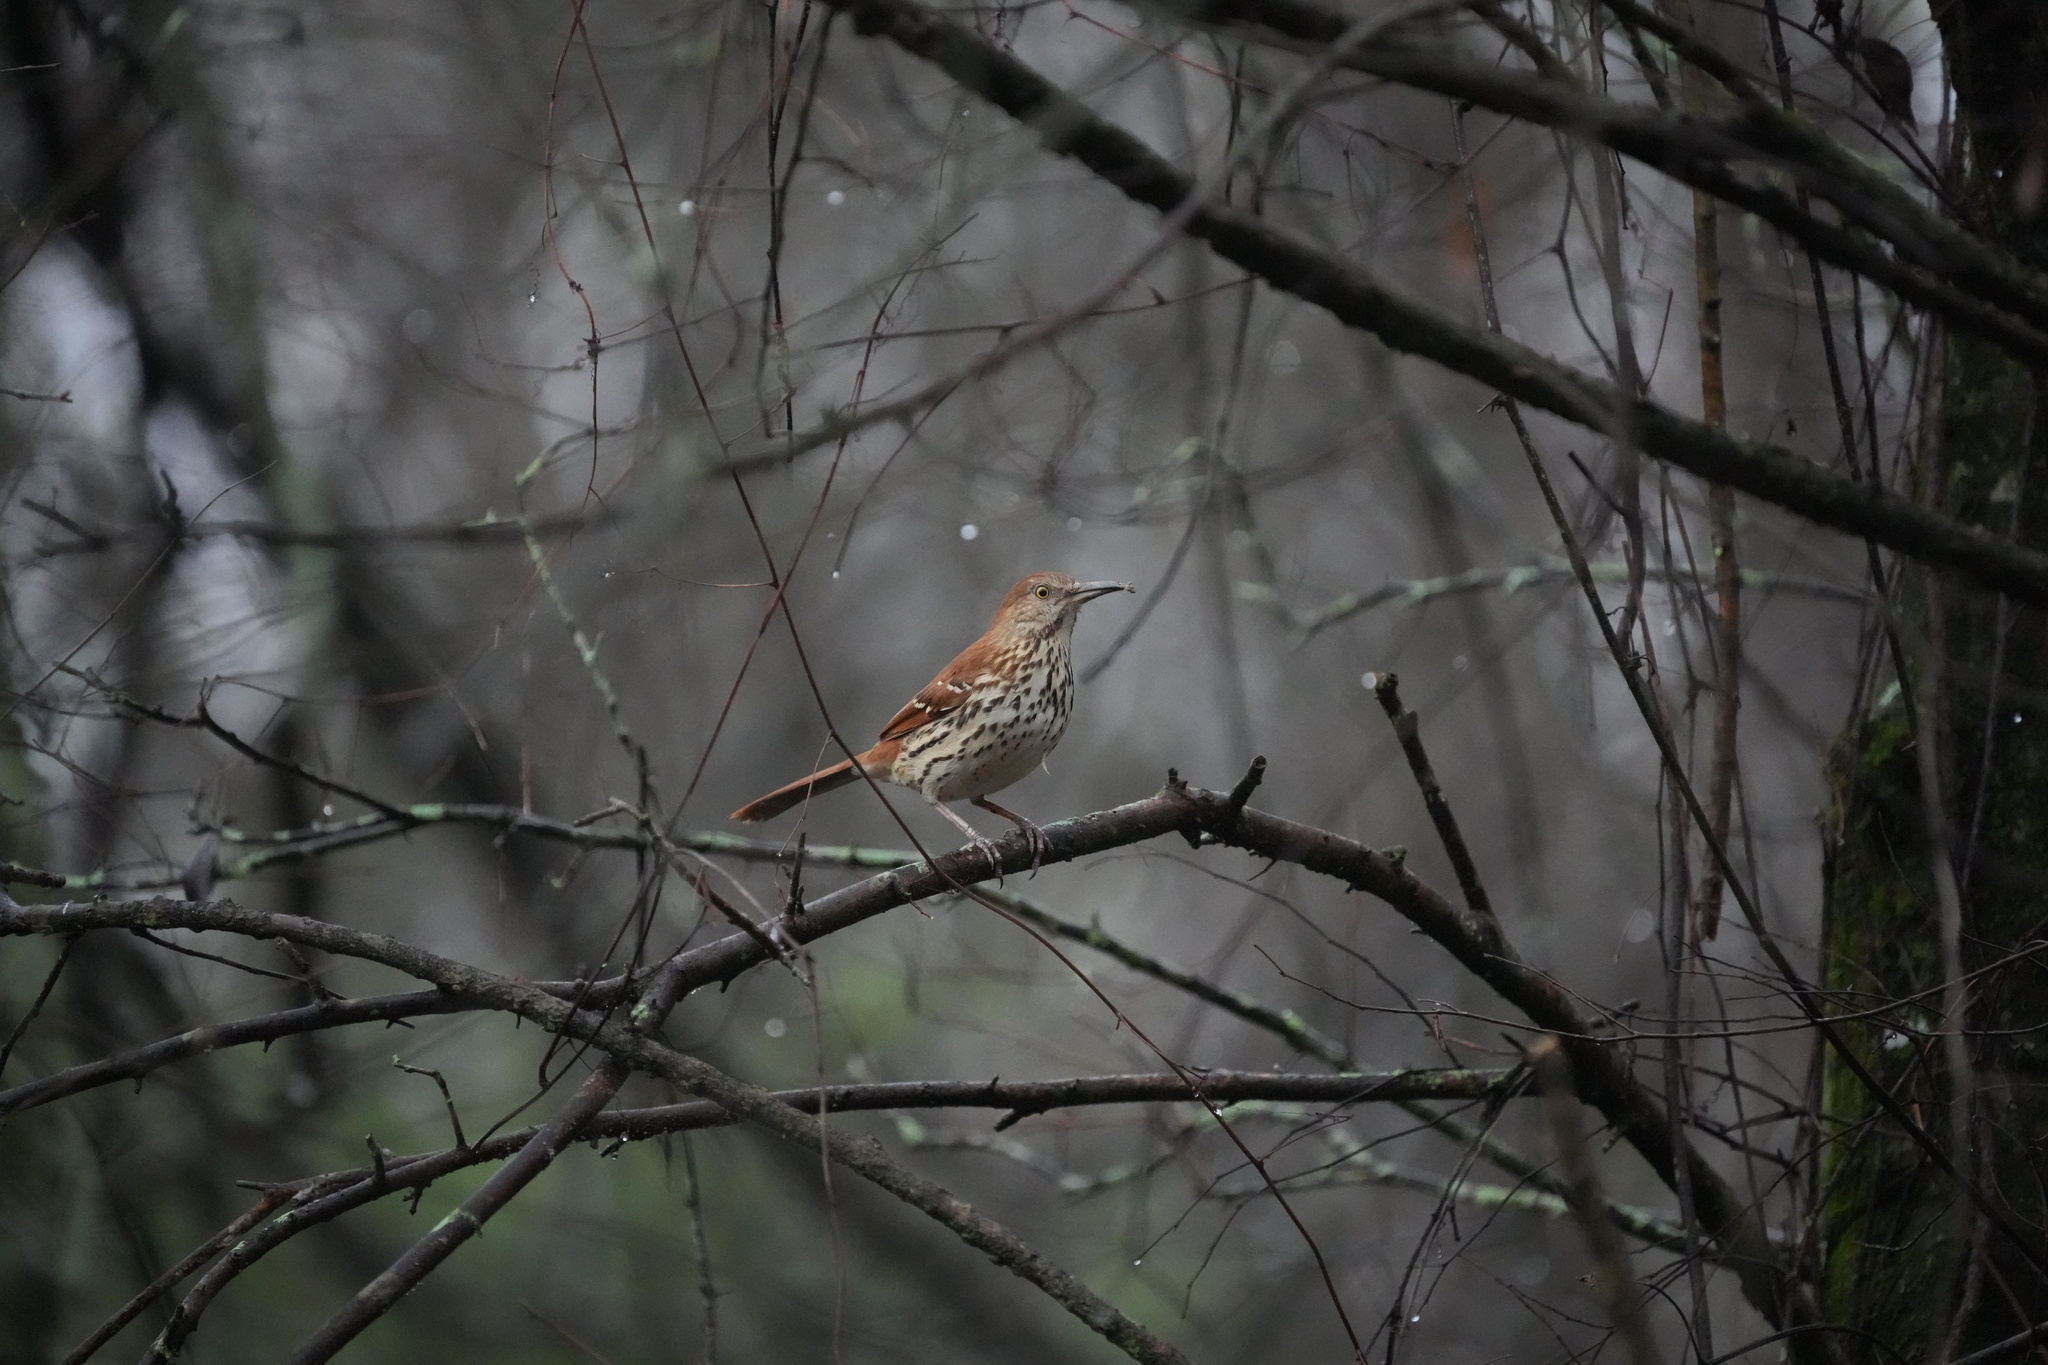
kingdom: Animalia
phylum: Chordata
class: Aves
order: Passeriformes
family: Mimidae
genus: Toxostoma
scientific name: Toxostoma rufum
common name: Brown thrasher
